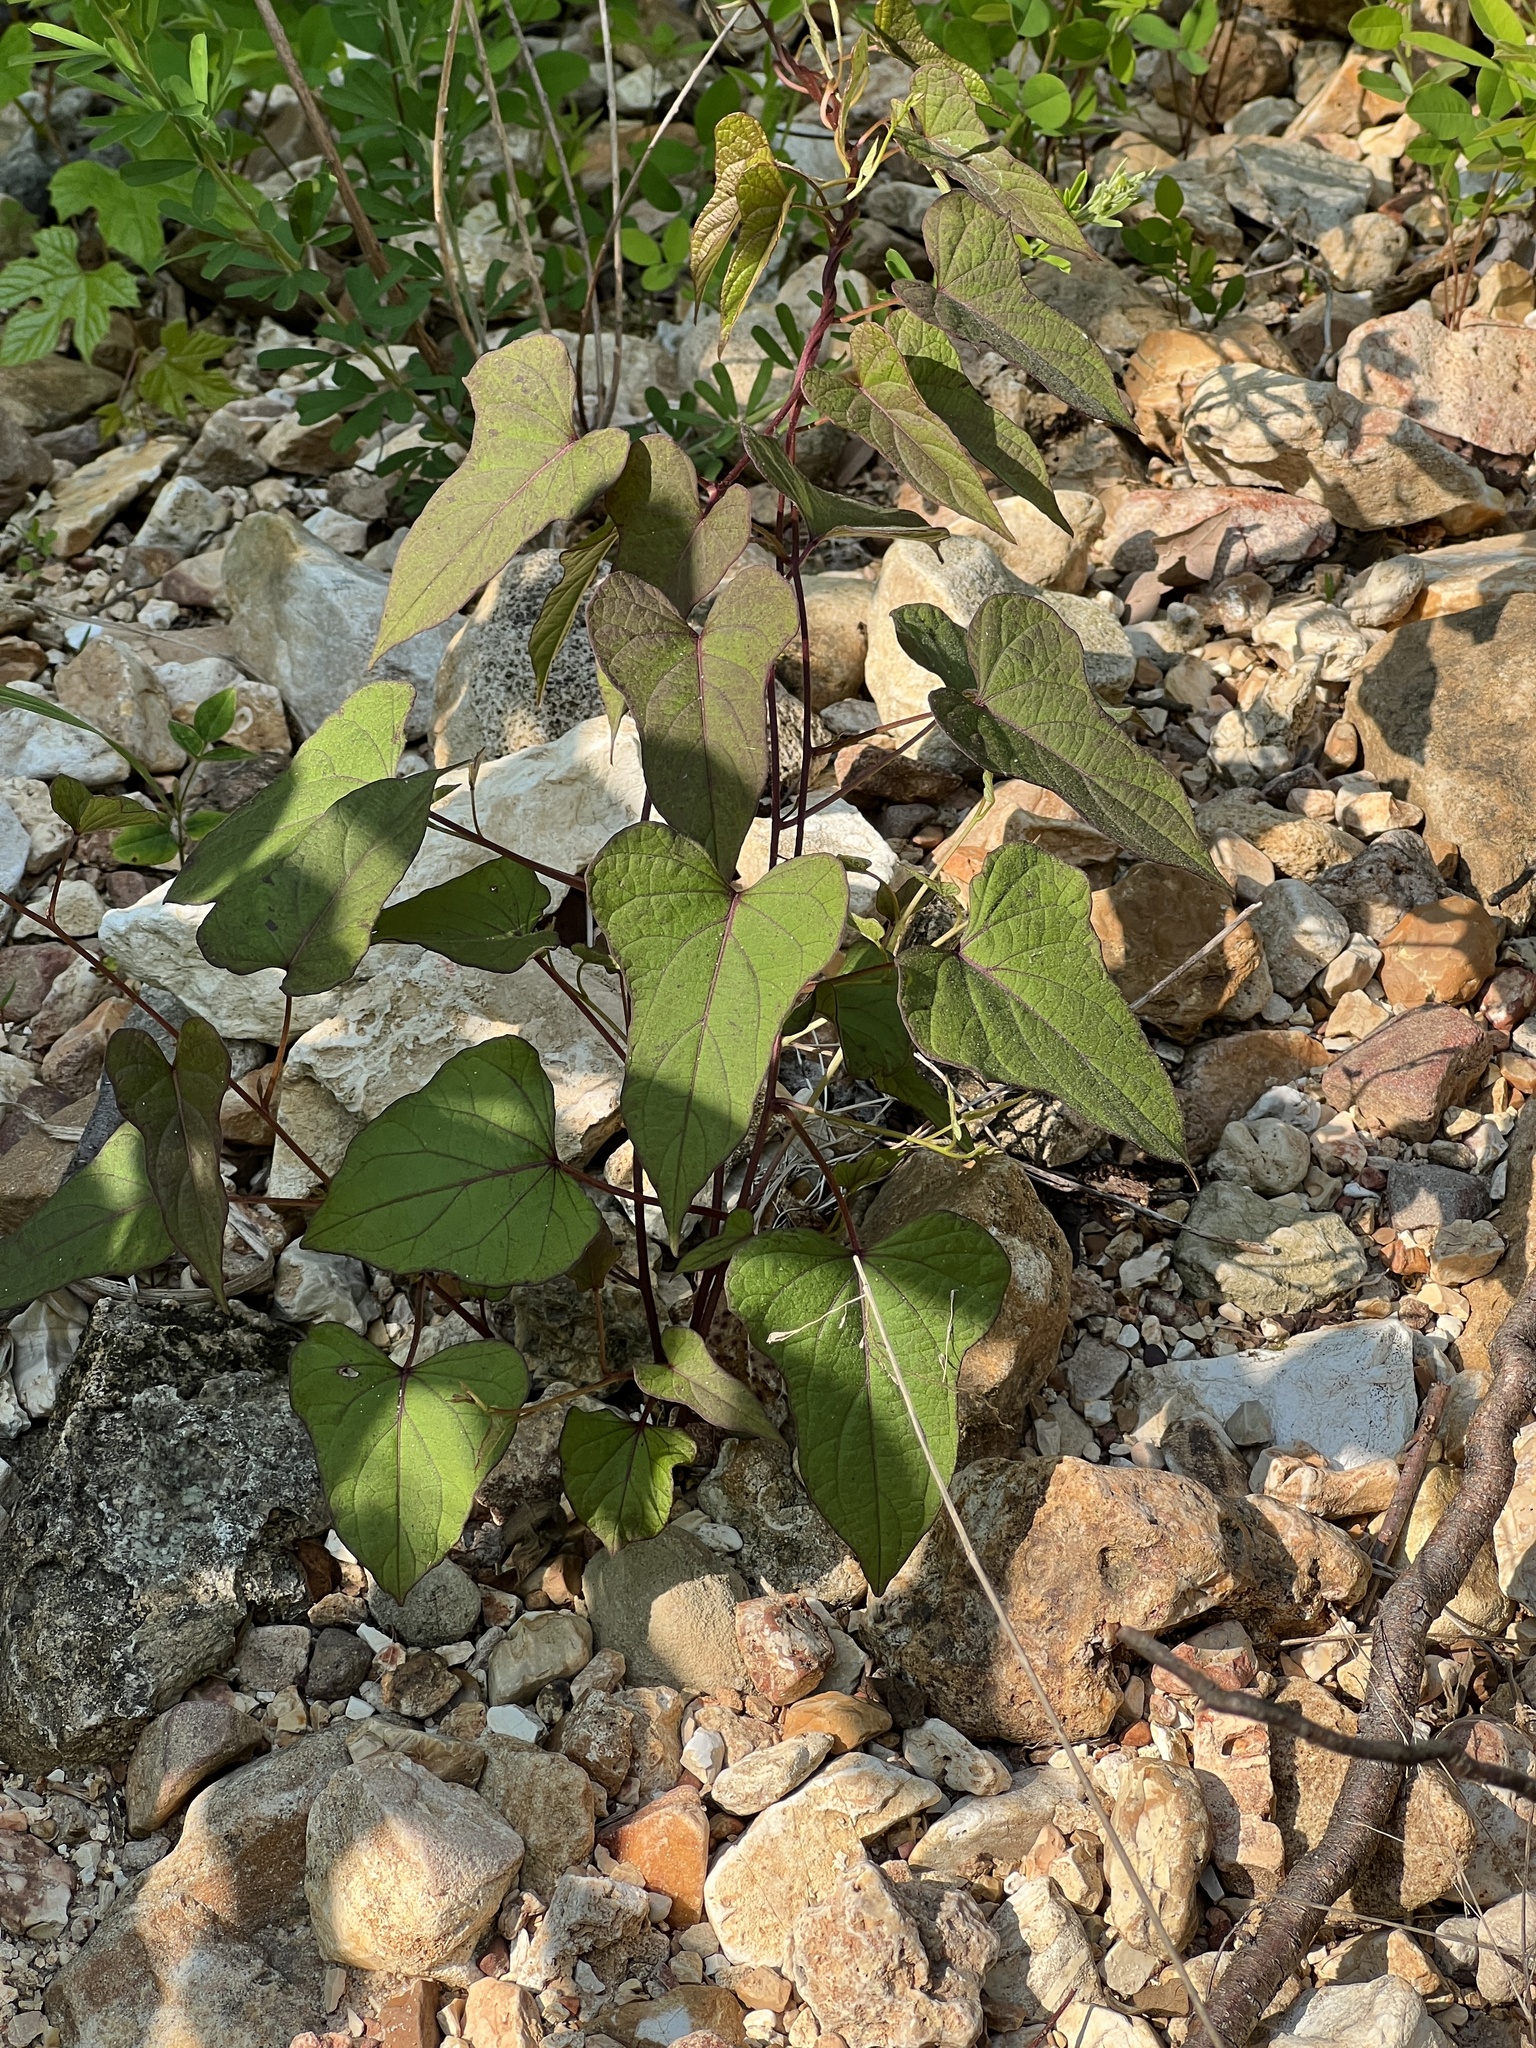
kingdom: Plantae
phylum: Tracheophyta
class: Magnoliopsida
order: Solanales
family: Convolvulaceae
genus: Ipomoea
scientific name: Ipomoea pandurata
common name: Man-of-the-earth
